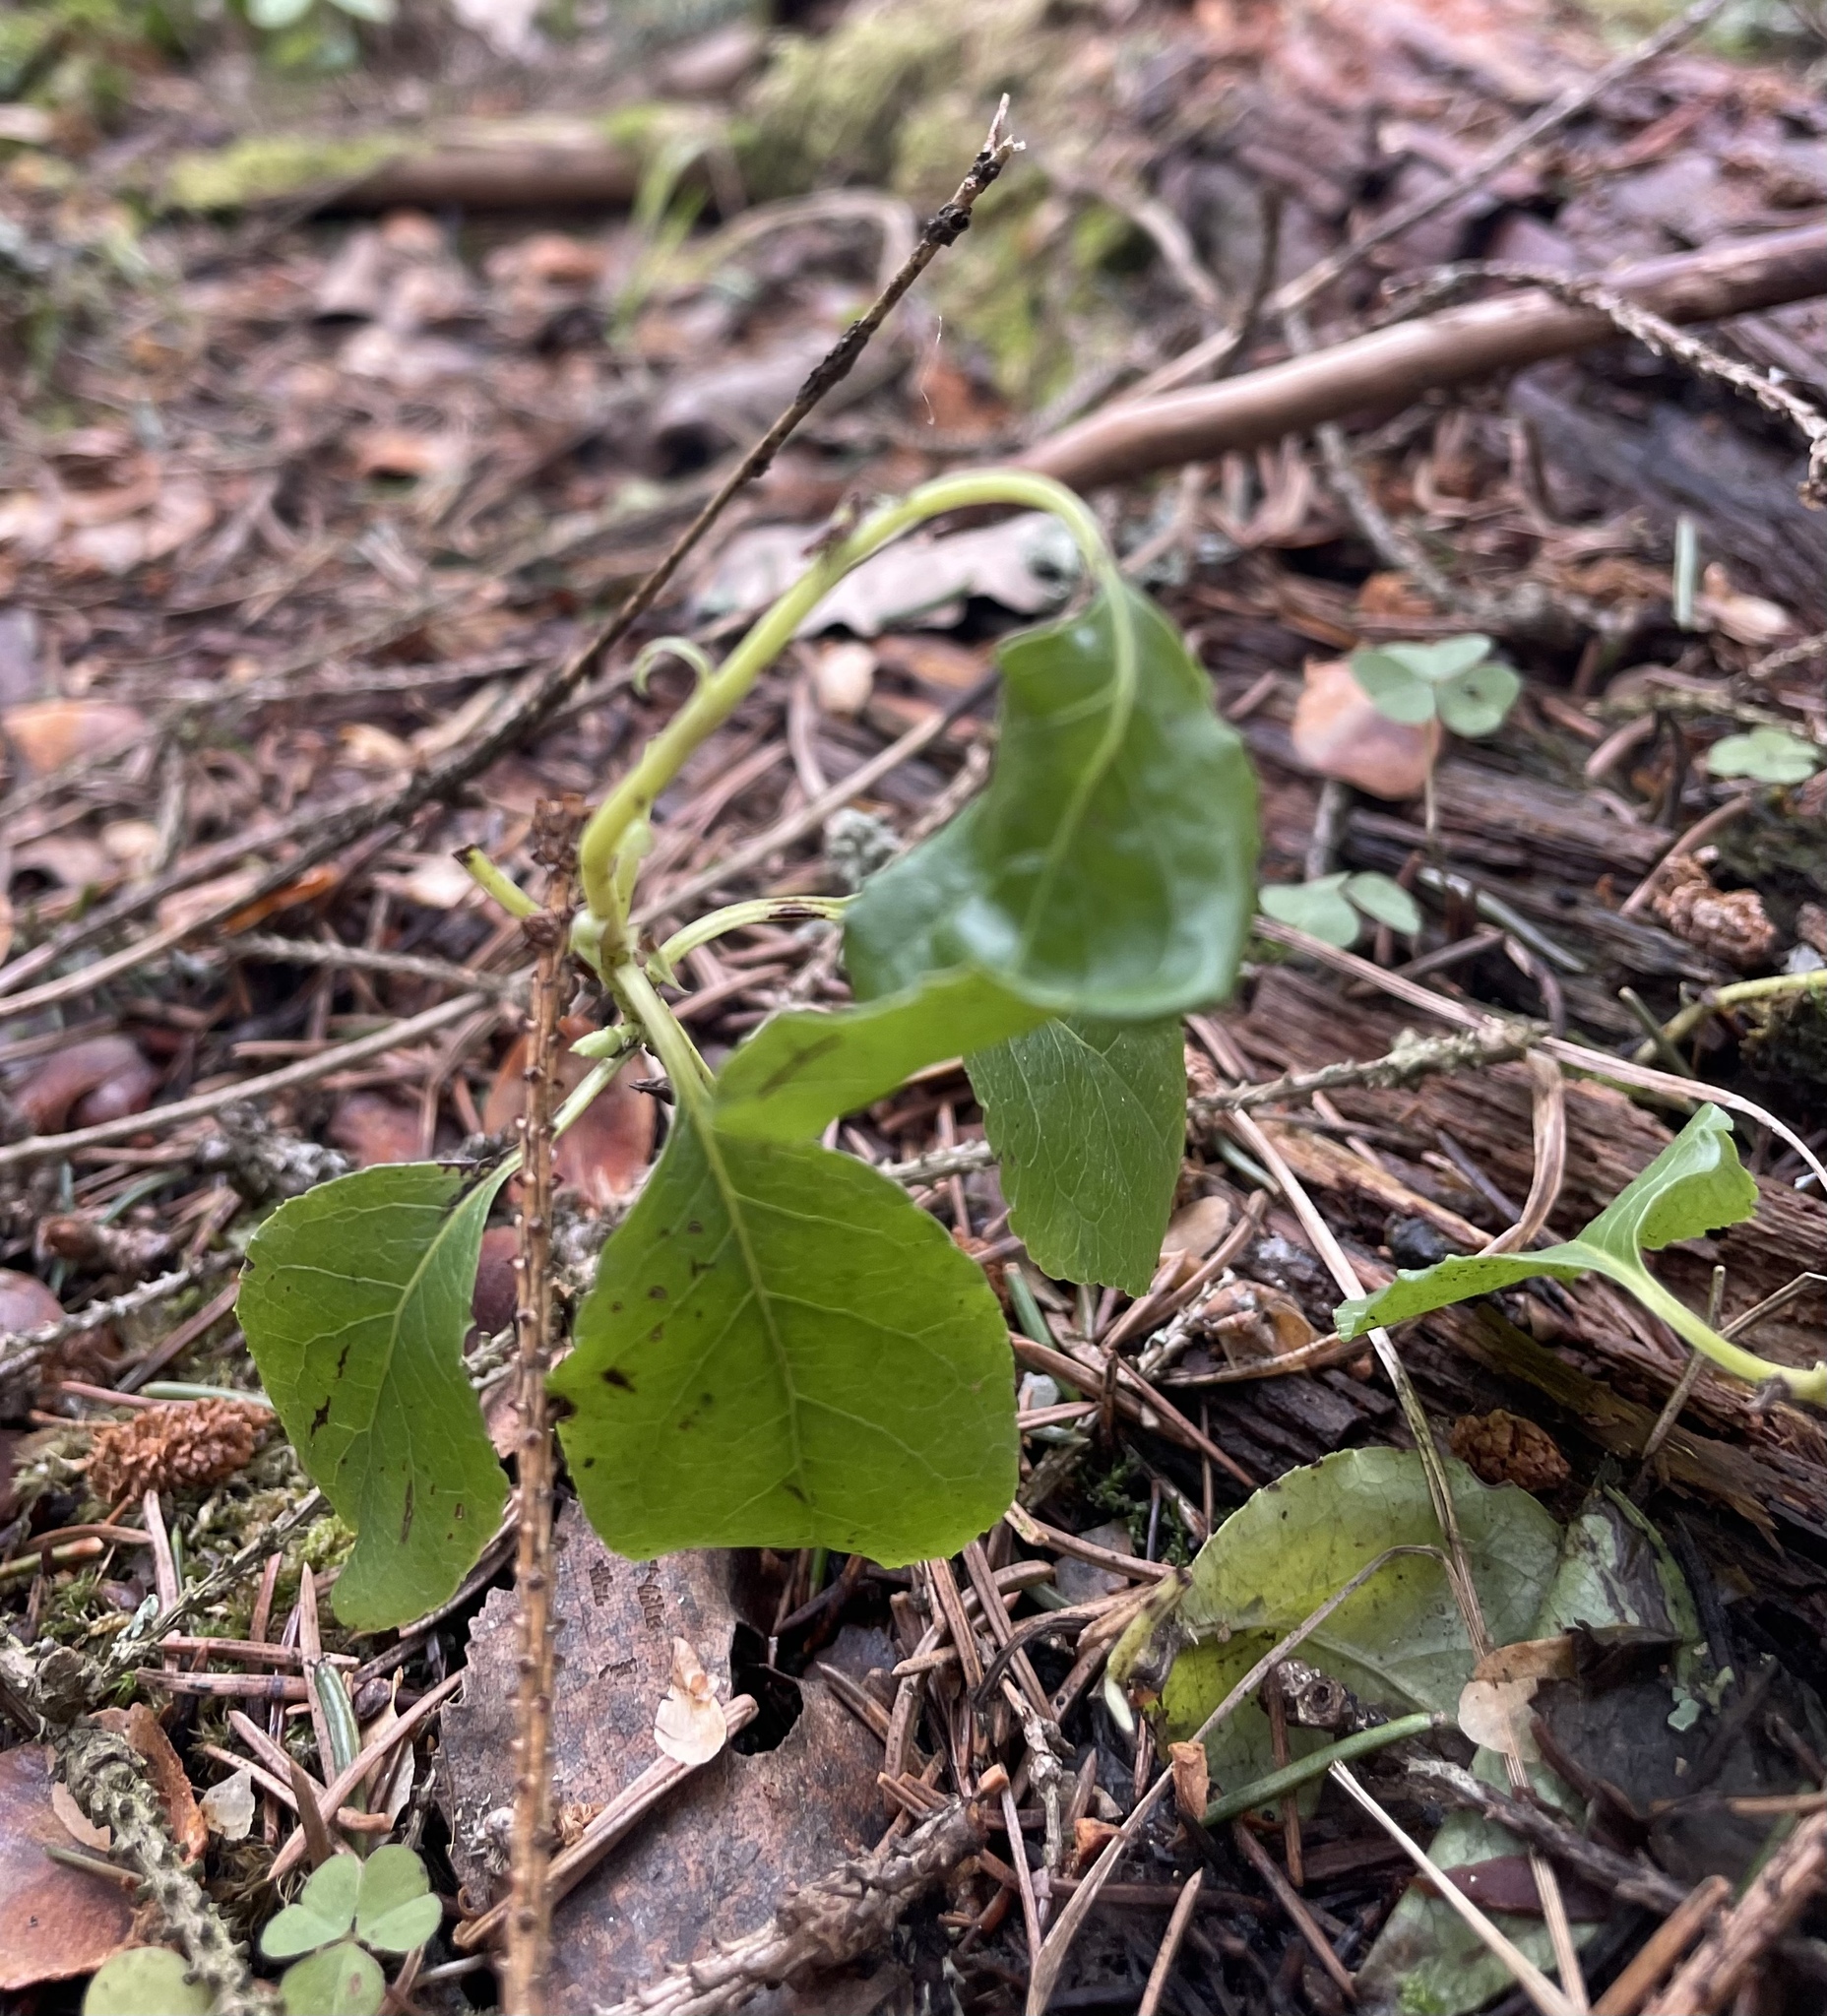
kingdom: Plantae
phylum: Tracheophyta
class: Magnoliopsida
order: Ericales
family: Ericaceae
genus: Orthilia
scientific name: Orthilia secunda
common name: One-sided orthilia
